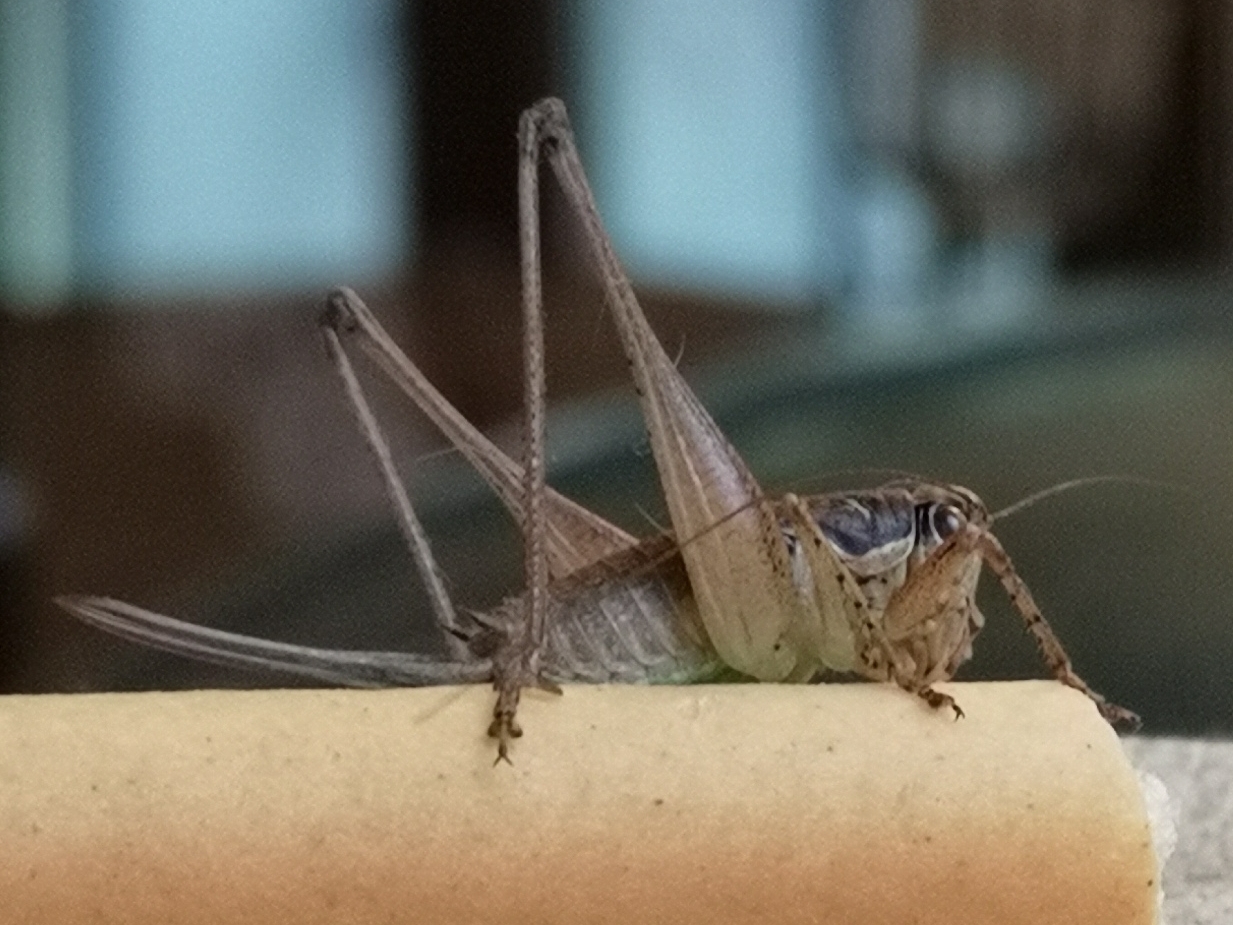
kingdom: Animalia
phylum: Arthropoda
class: Insecta
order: Orthoptera
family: Tettigoniidae
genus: Pachytrachis
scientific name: Pachytrachis gracilis
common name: Graceful bush-cricket
